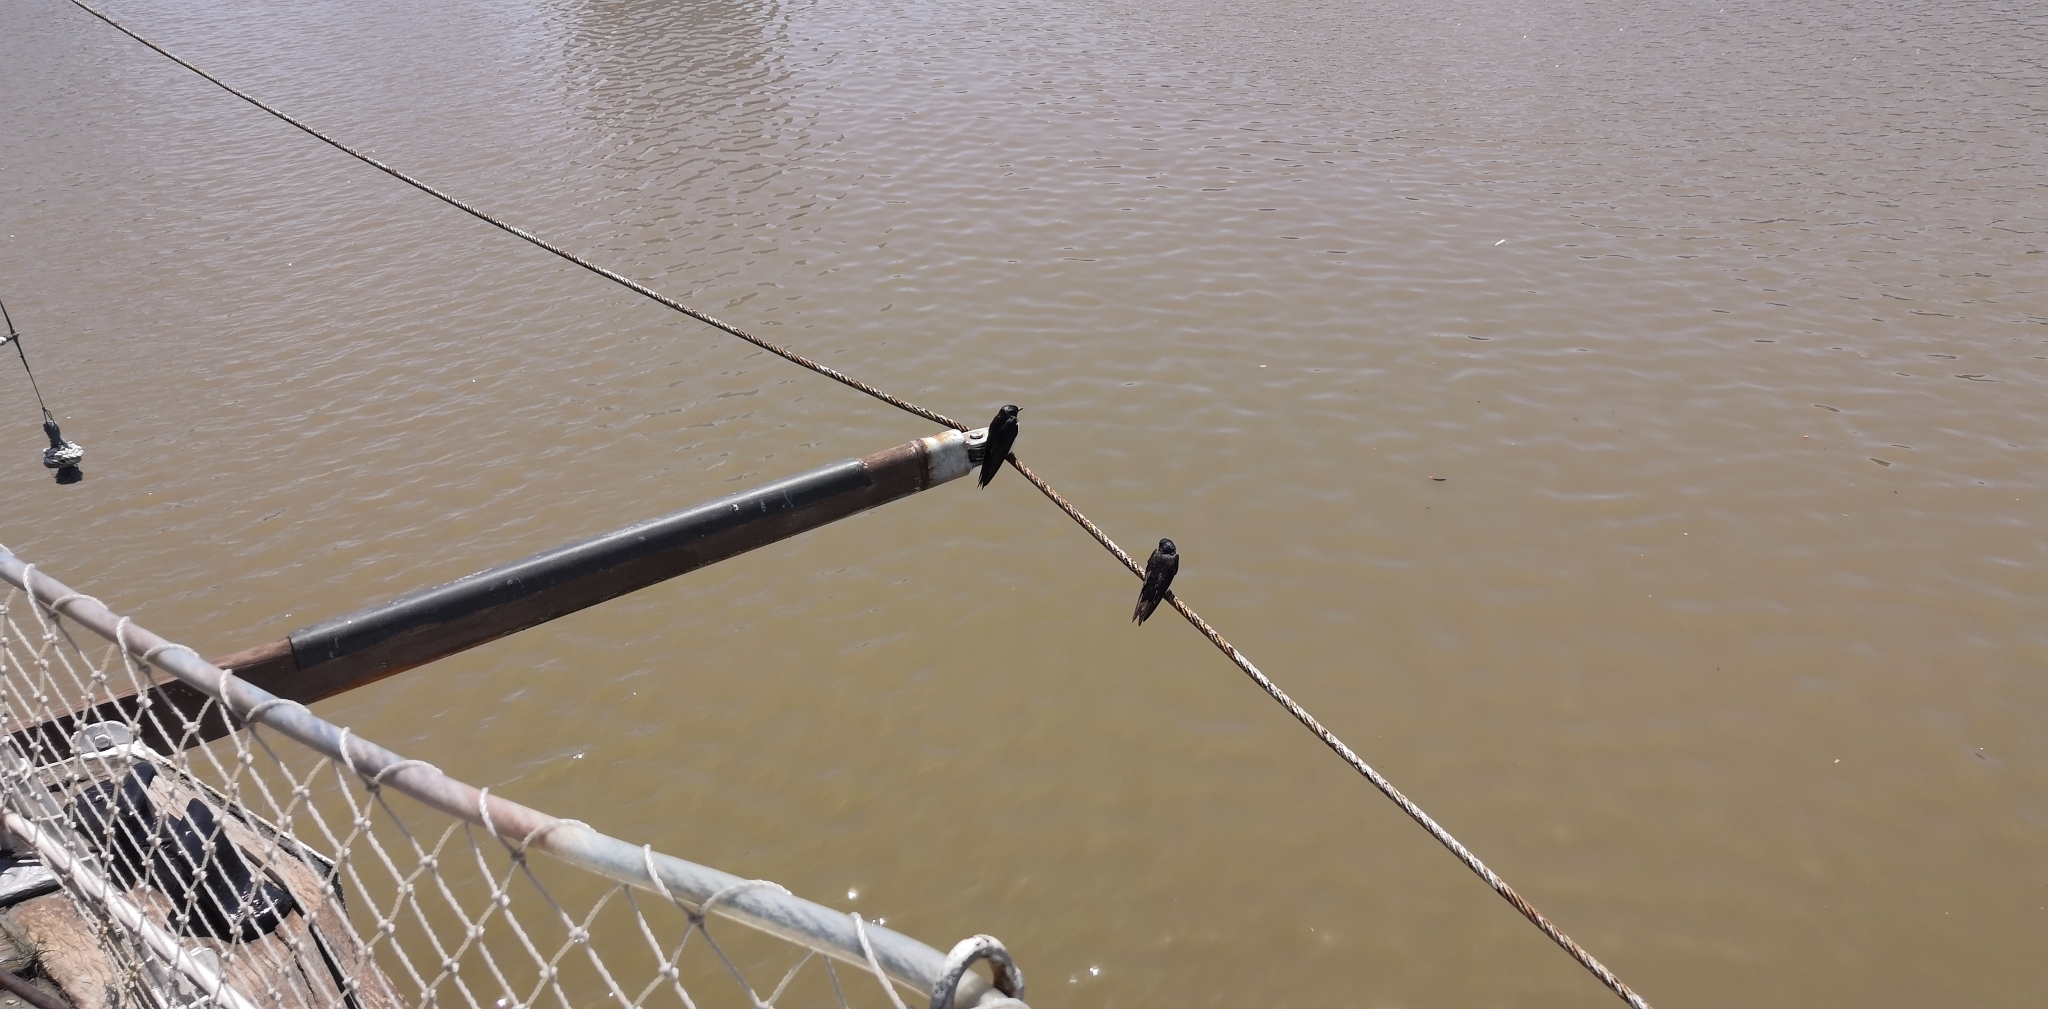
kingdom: Animalia
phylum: Chordata
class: Aves
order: Passeriformes
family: Hirundinidae
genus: Progne
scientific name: Progne chalybea
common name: Grey-breasted martin
